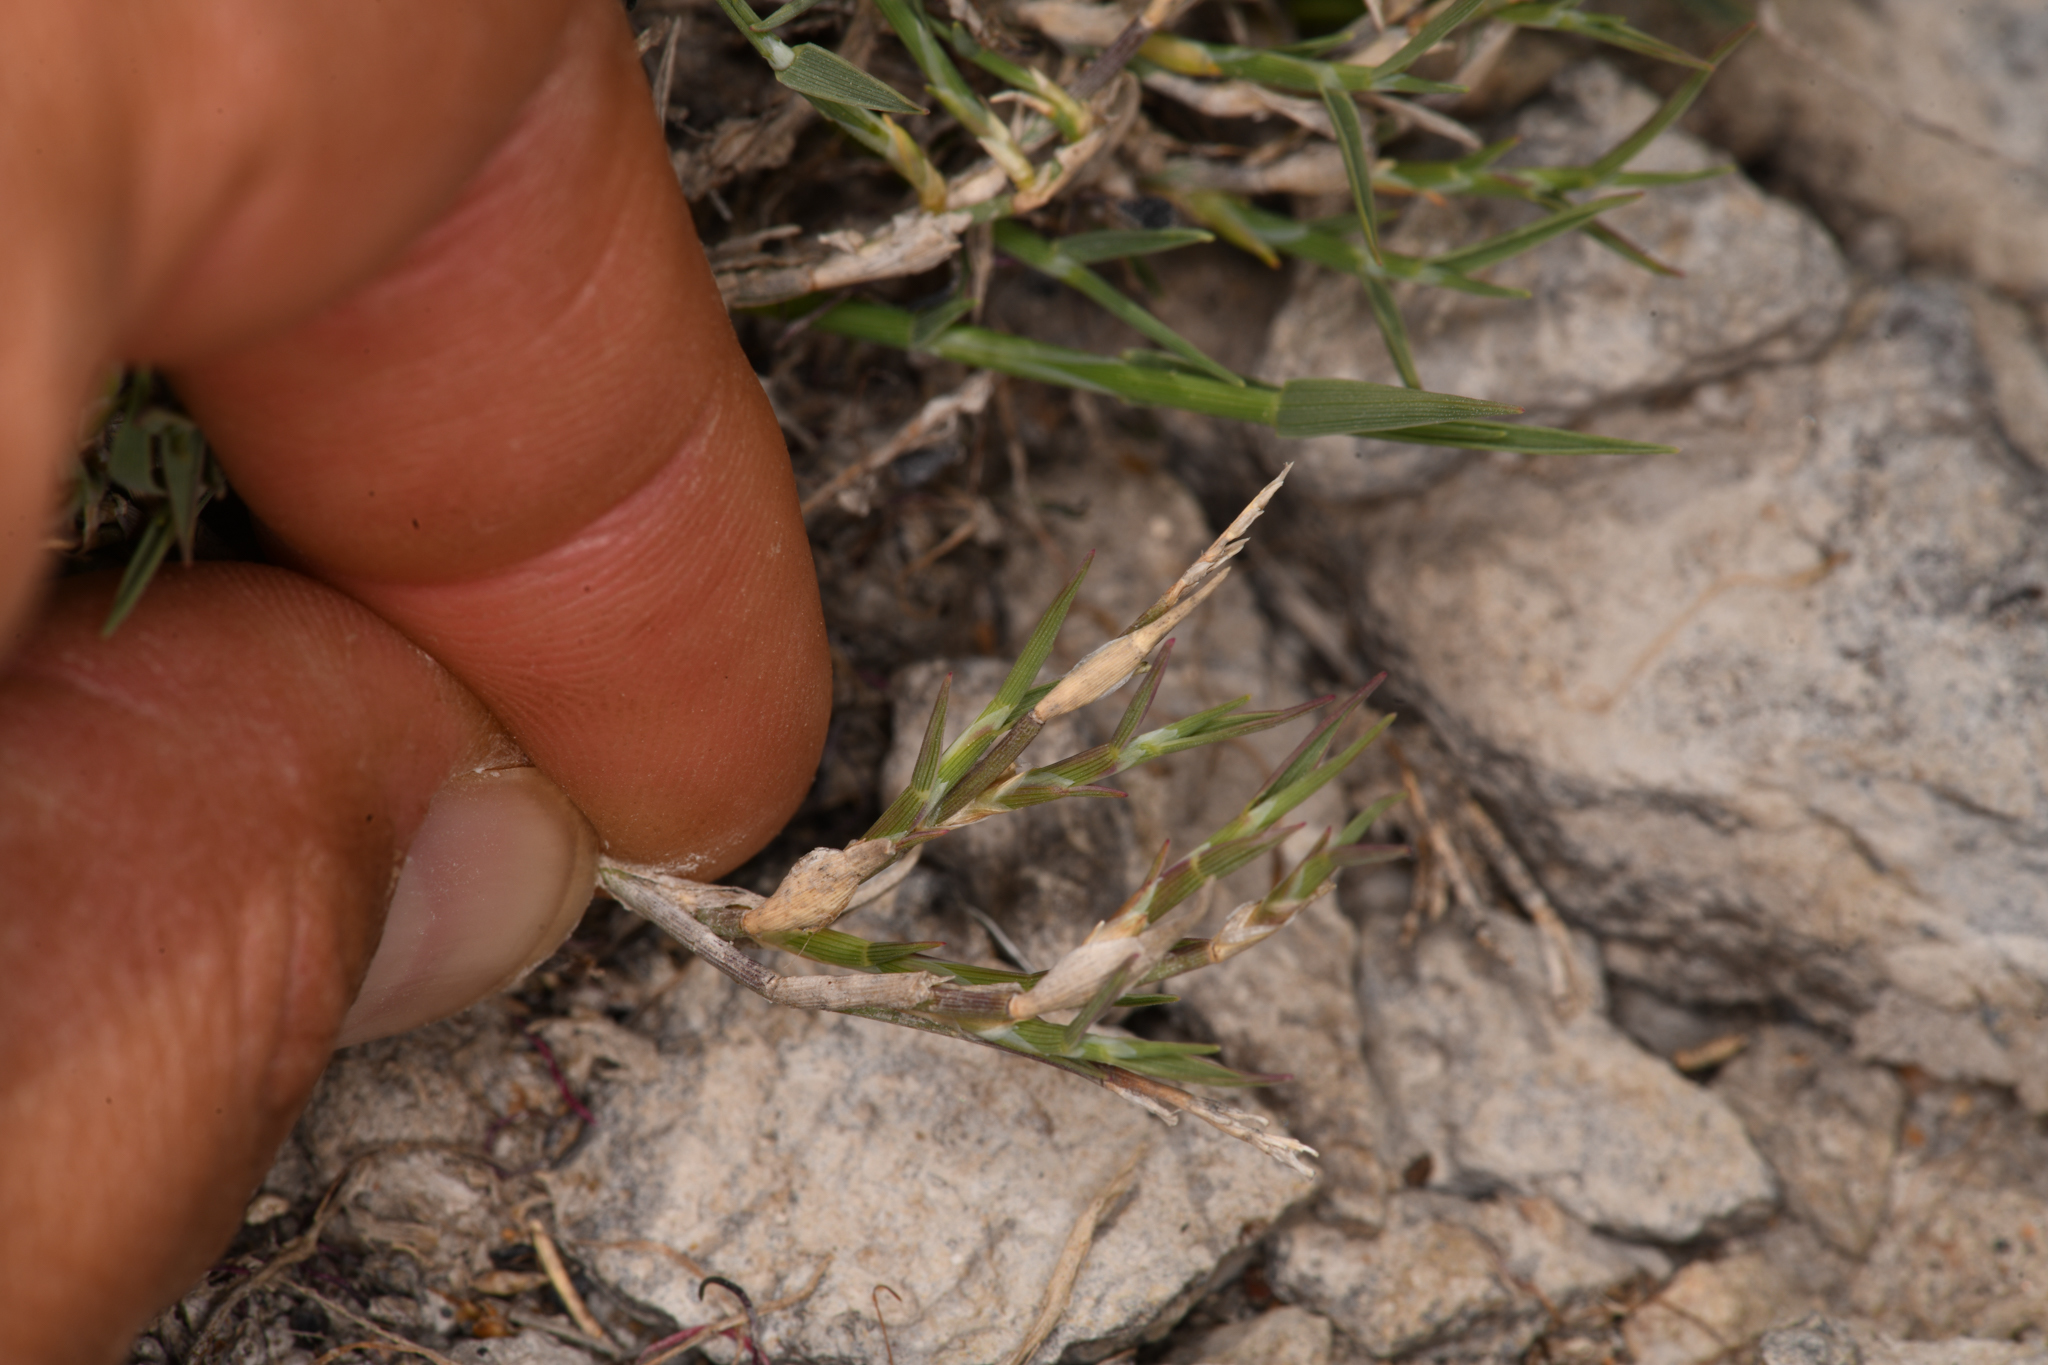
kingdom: Plantae
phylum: Tracheophyta
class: Liliopsida
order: Poales
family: Poaceae
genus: Muhlenbergia
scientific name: Muhlenbergia richardsonis
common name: Mat muhly
